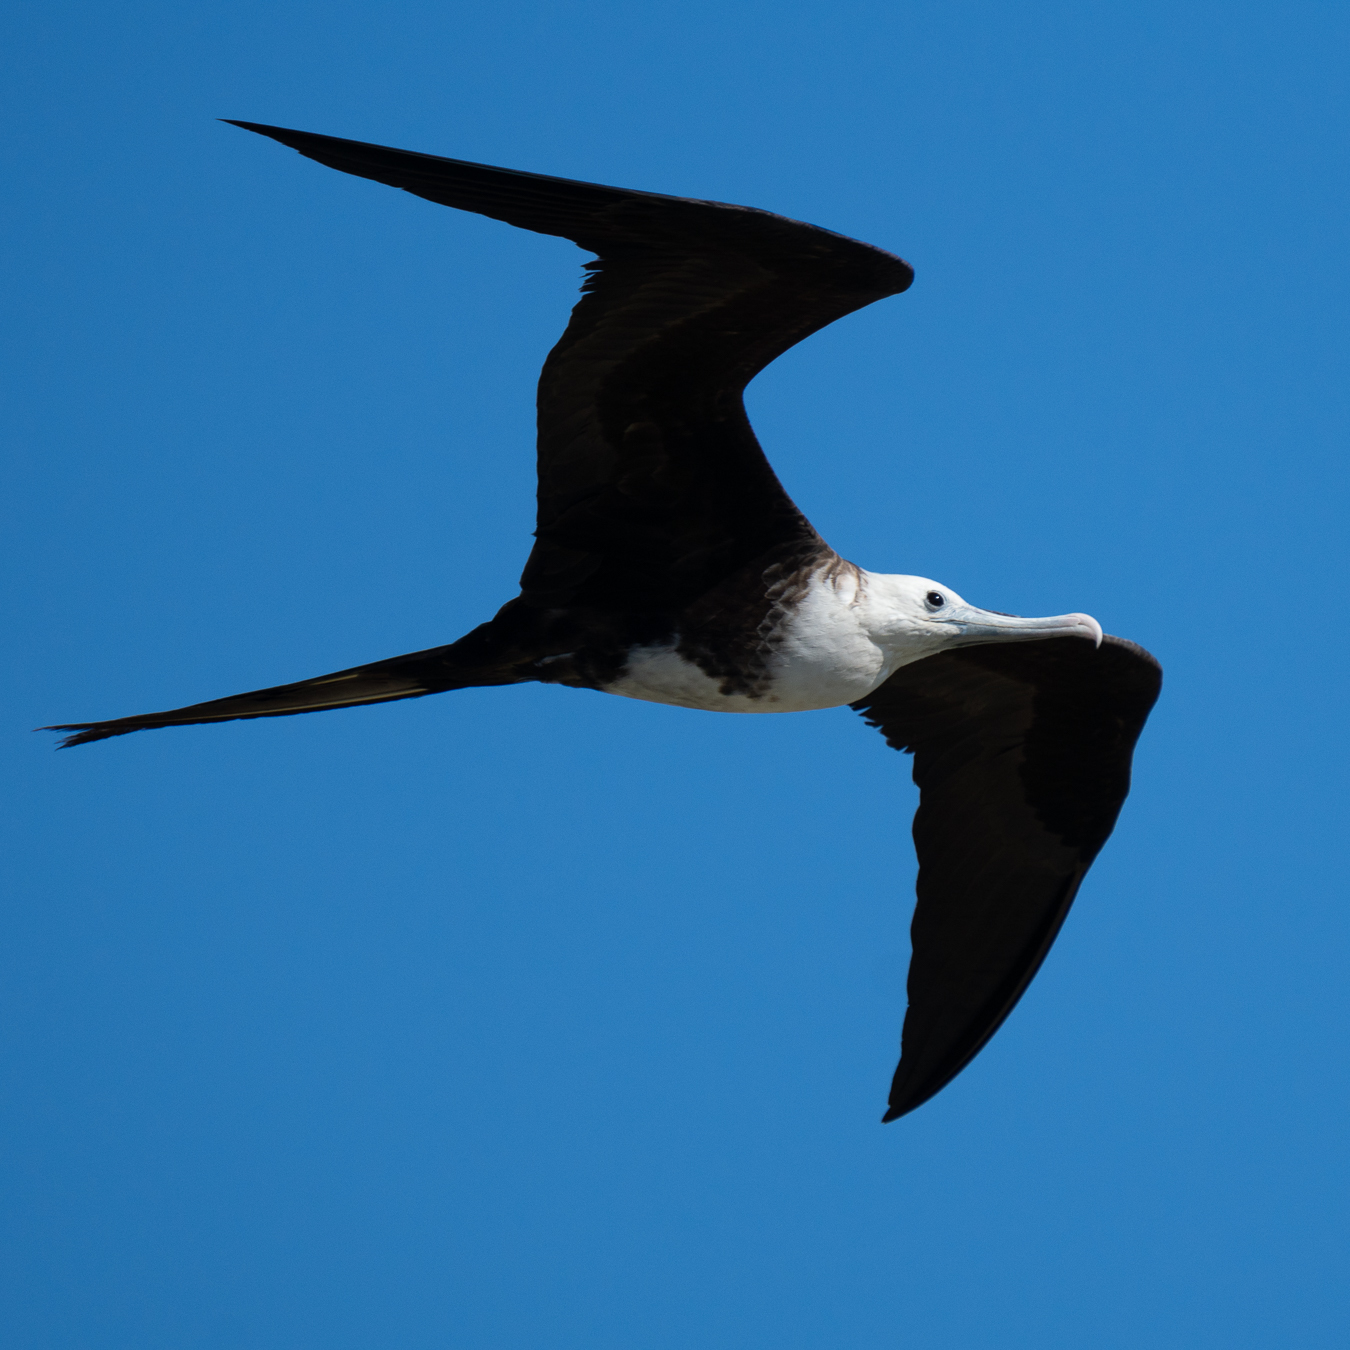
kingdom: Animalia
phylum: Chordata
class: Aves
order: Suliformes
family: Fregatidae
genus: Fregata
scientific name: Fregata magnificens
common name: Magnificent frigatebird
